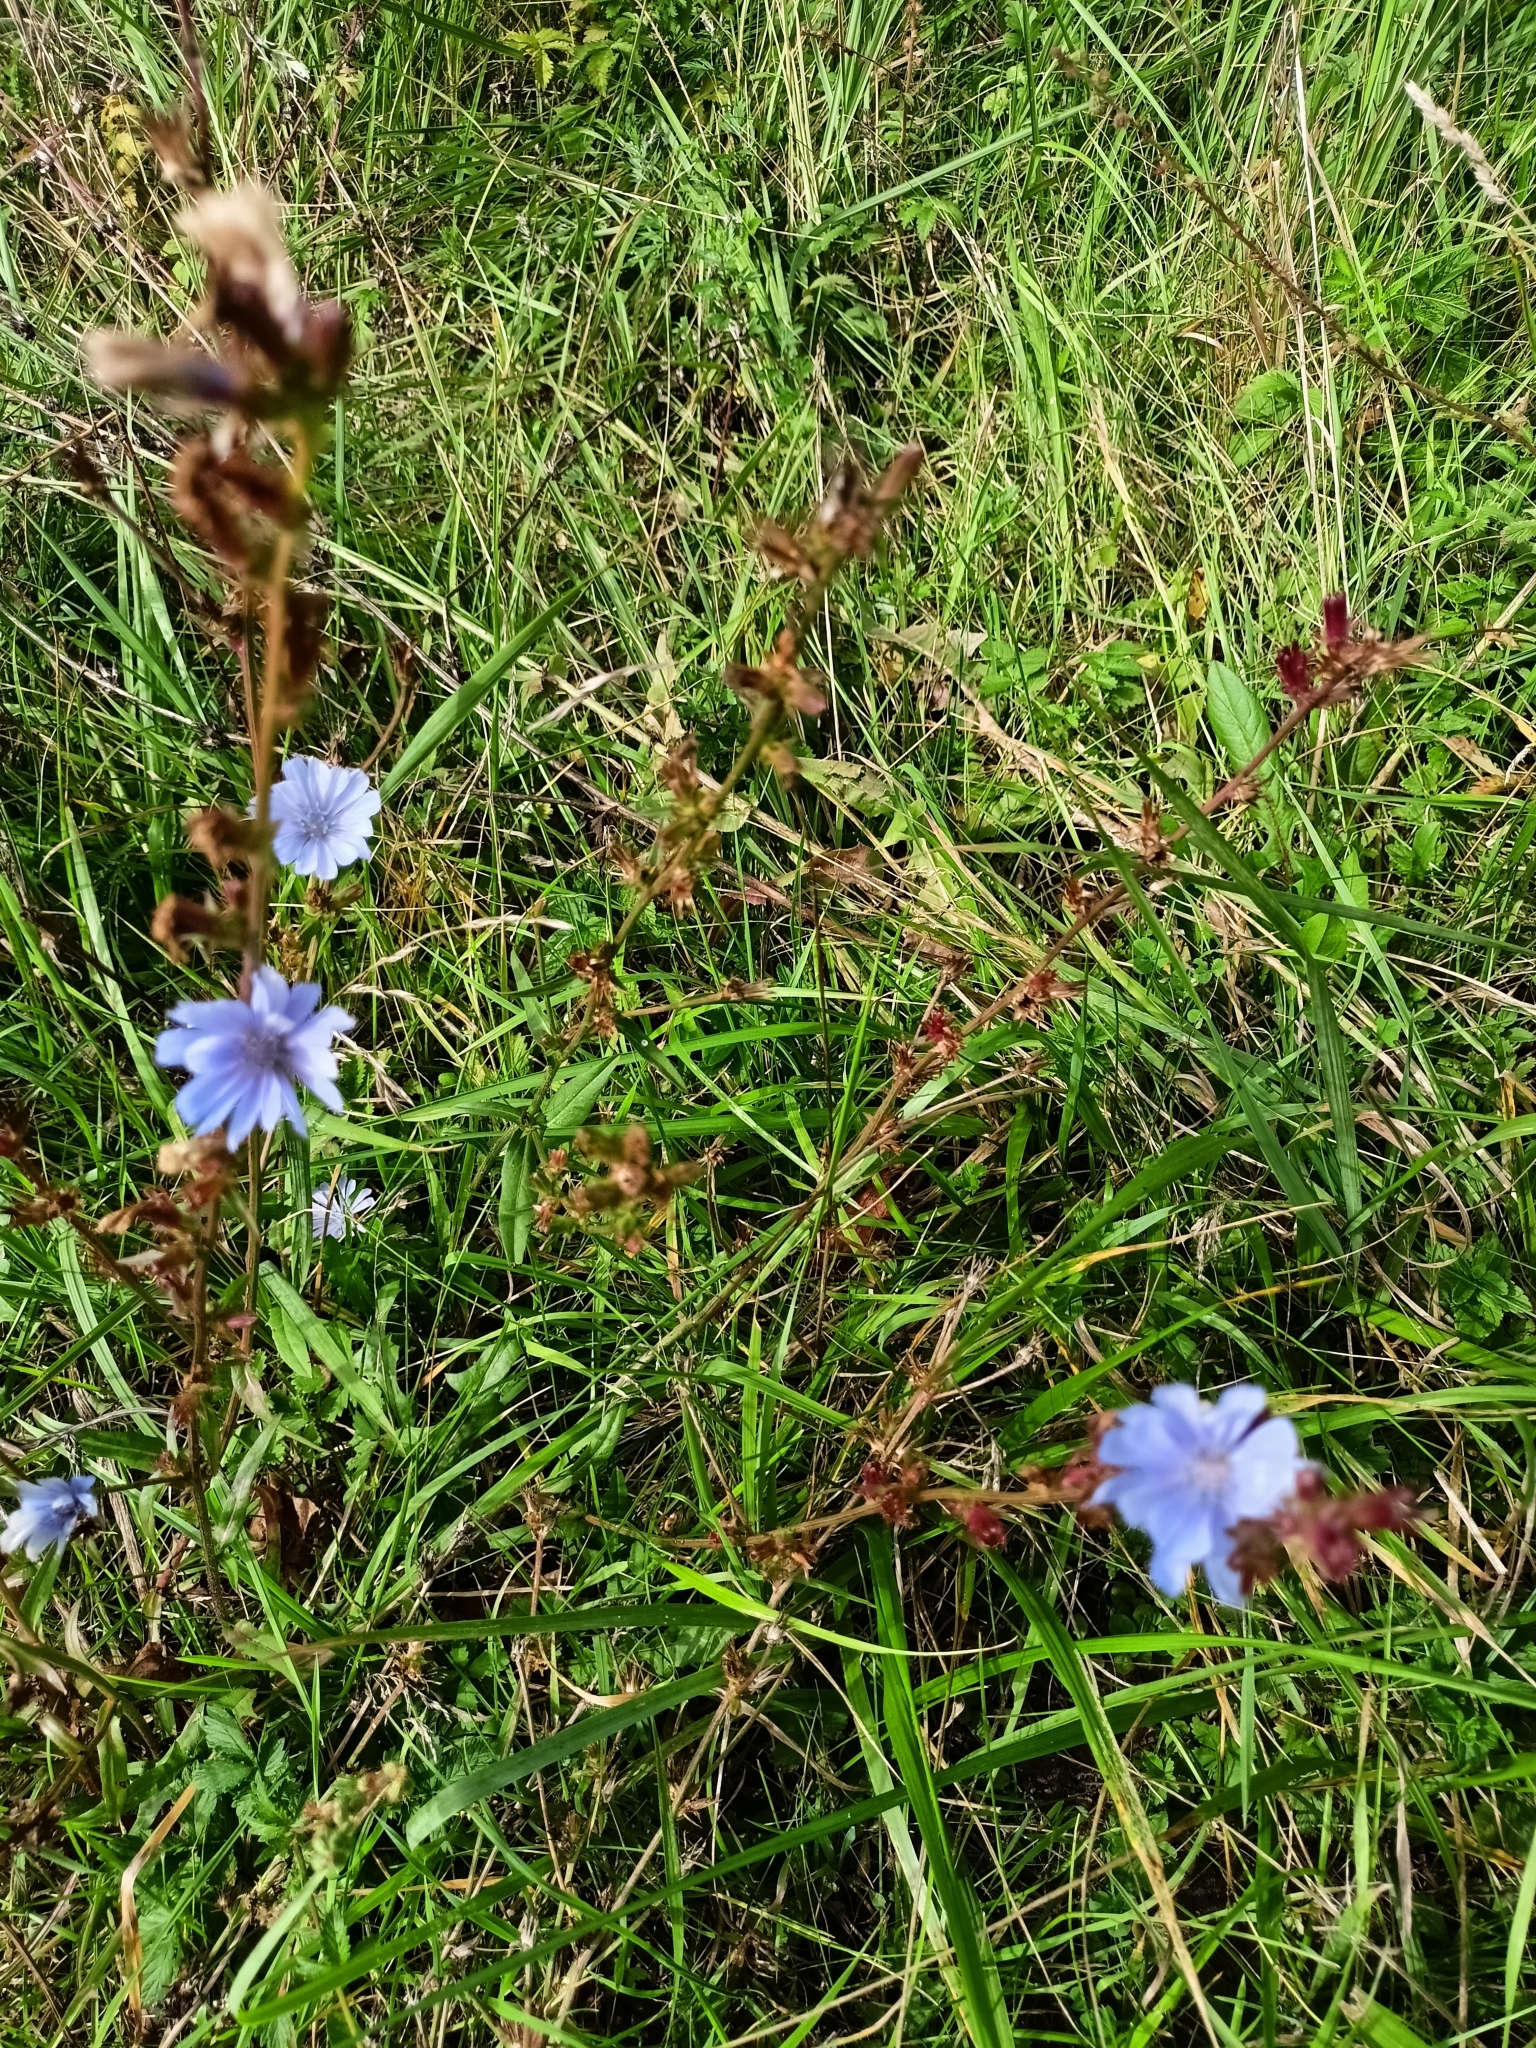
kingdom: Plantae
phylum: Tracheophyta
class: Magnoliopsida
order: Asterales
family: Asteraceae
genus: Cichorium
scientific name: Cichorium intybus
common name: Chicory
